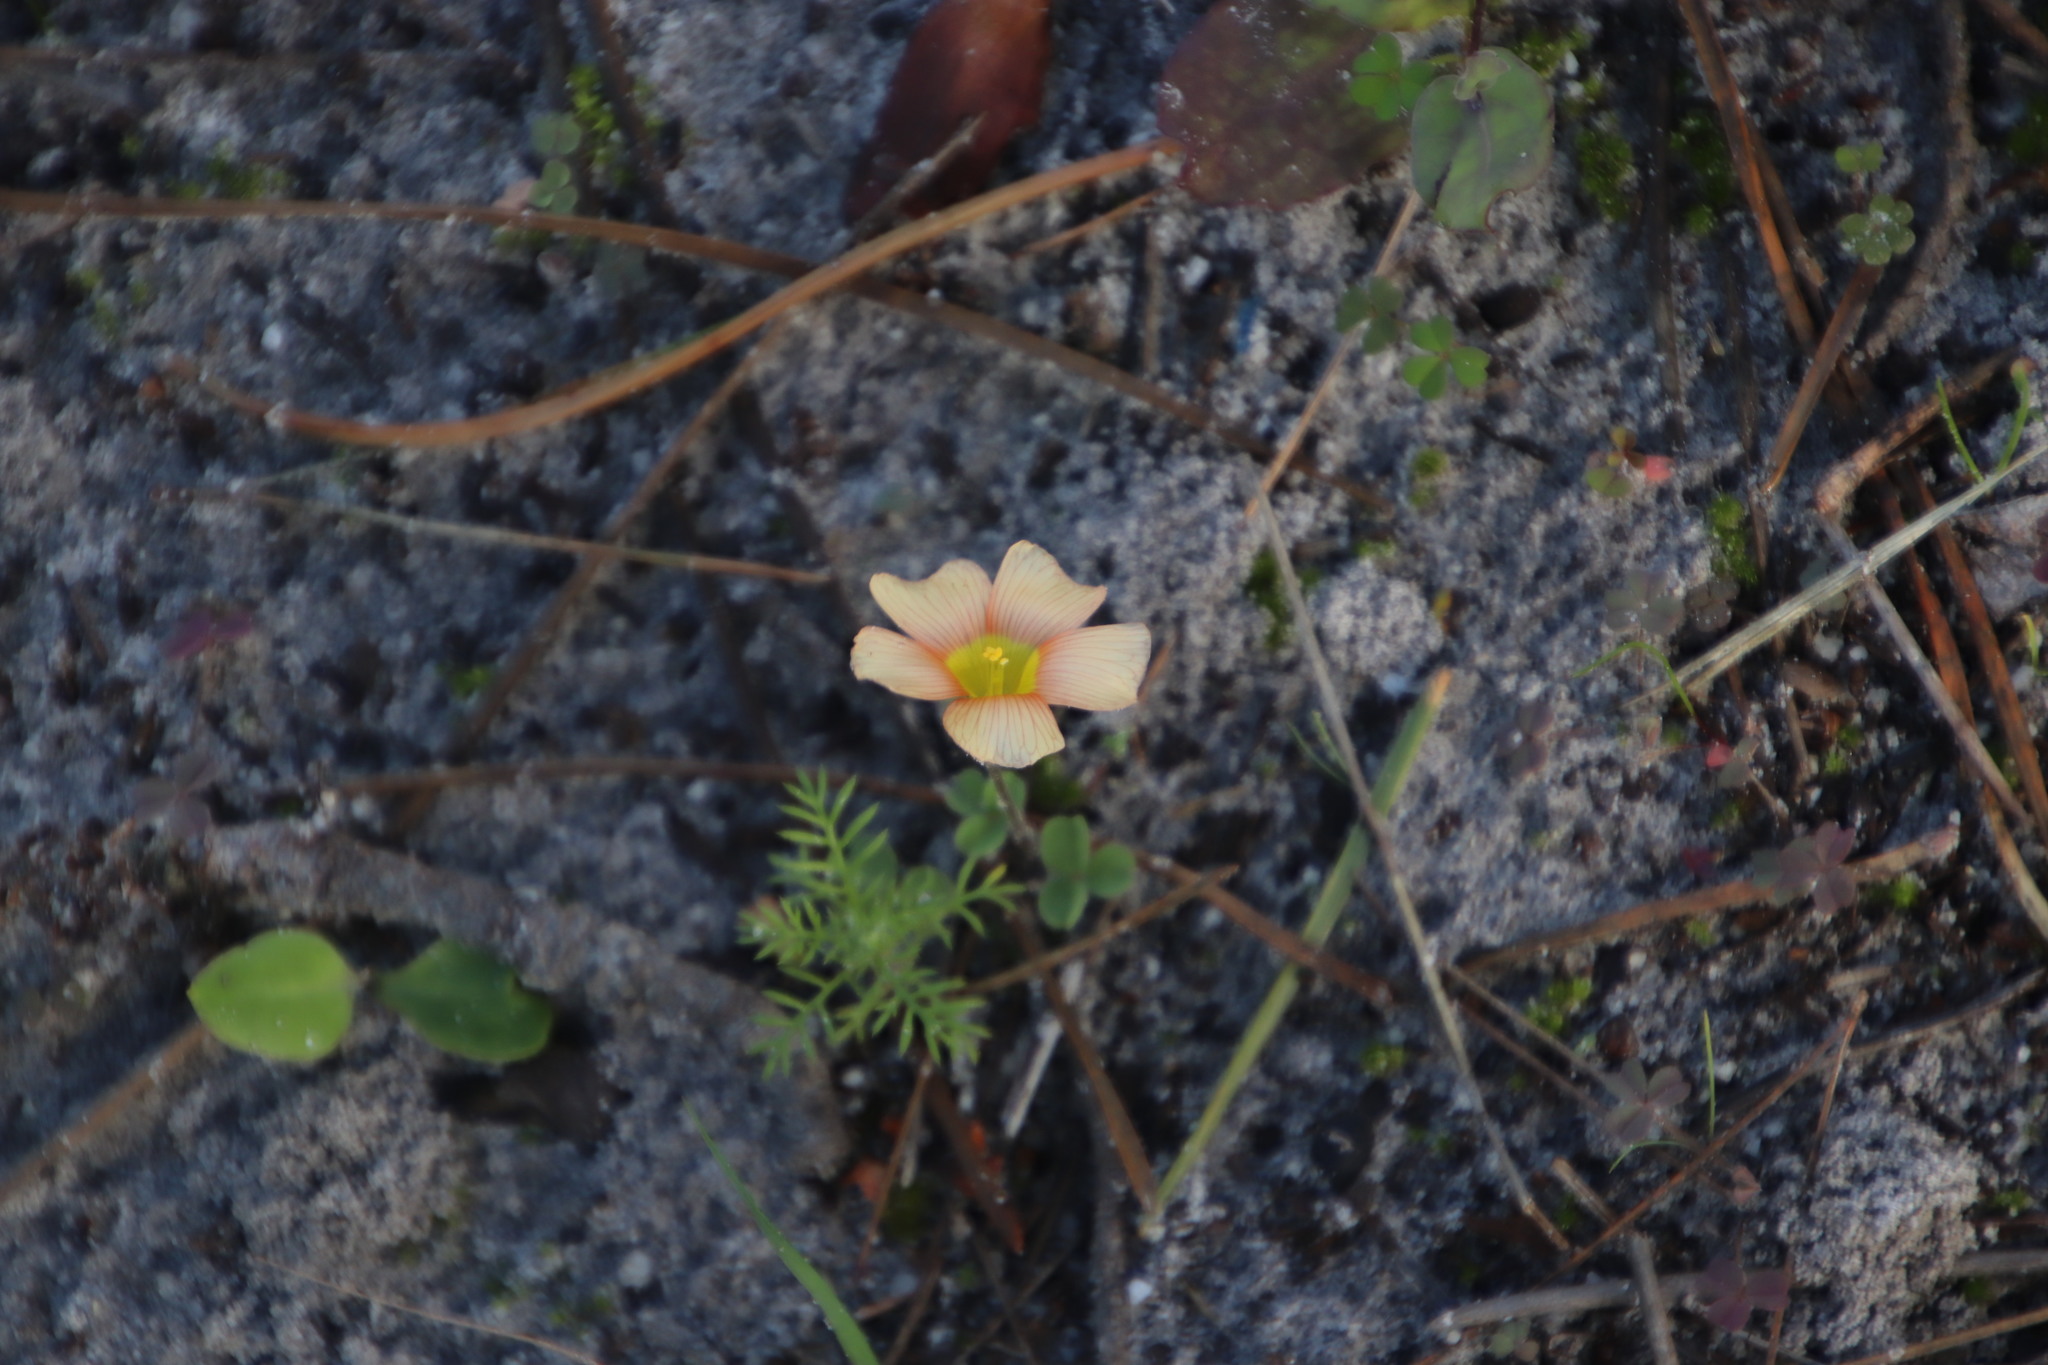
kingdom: Plantae
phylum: Tracheophyta
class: Magnoliopsida
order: Oxalidales
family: Oxalidaceae
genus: Oxalis
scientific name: Oxalis obtusa
